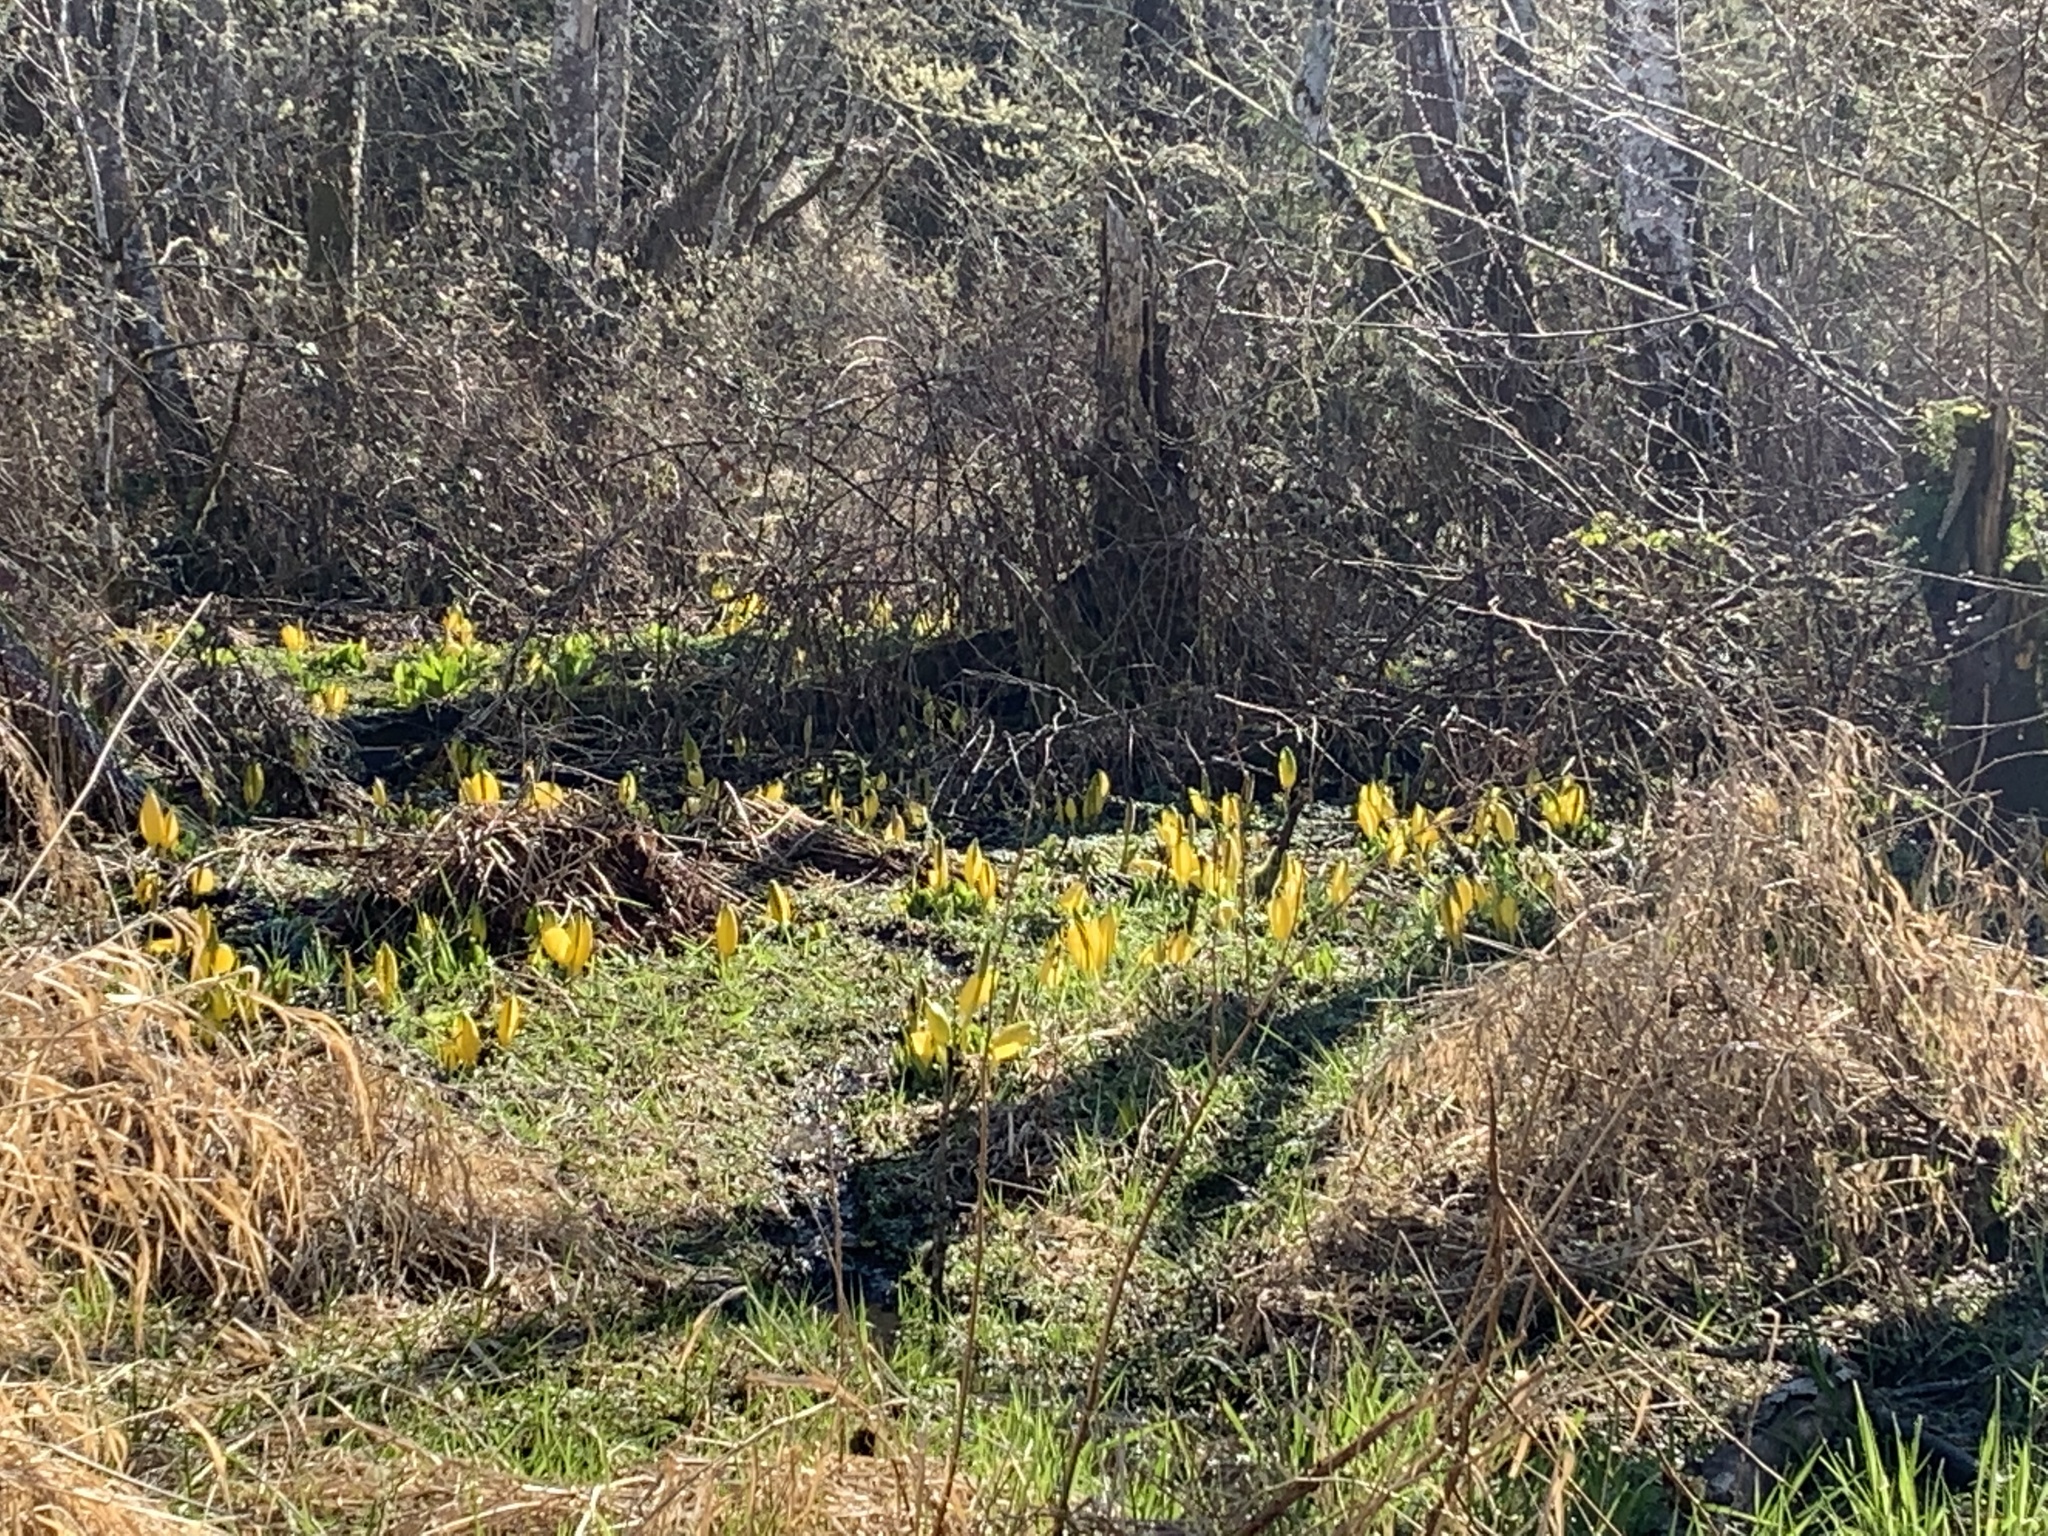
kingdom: Plantae
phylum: Tracheophyta
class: Liliopsida
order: Alismatales
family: Araceae
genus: Lysichiton
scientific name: Lysichiton americanus
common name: American skunk cabbage
